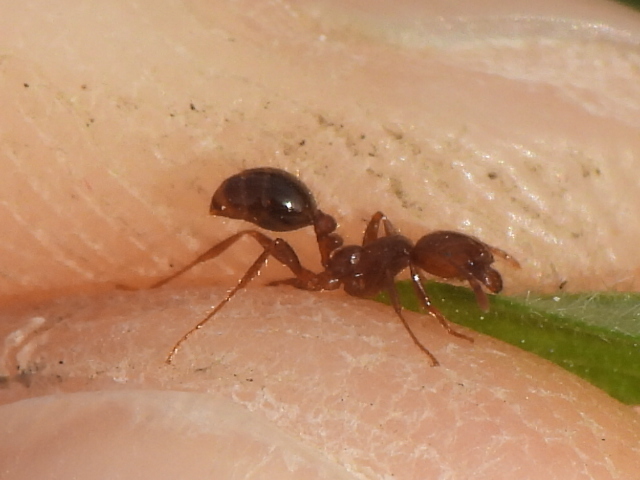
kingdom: Animalia
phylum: Arthropoda
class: Insecta
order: Hymenoptera
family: Formicidae
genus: Solenopsis
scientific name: Solenopsis invicta
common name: Red imported fire ant
